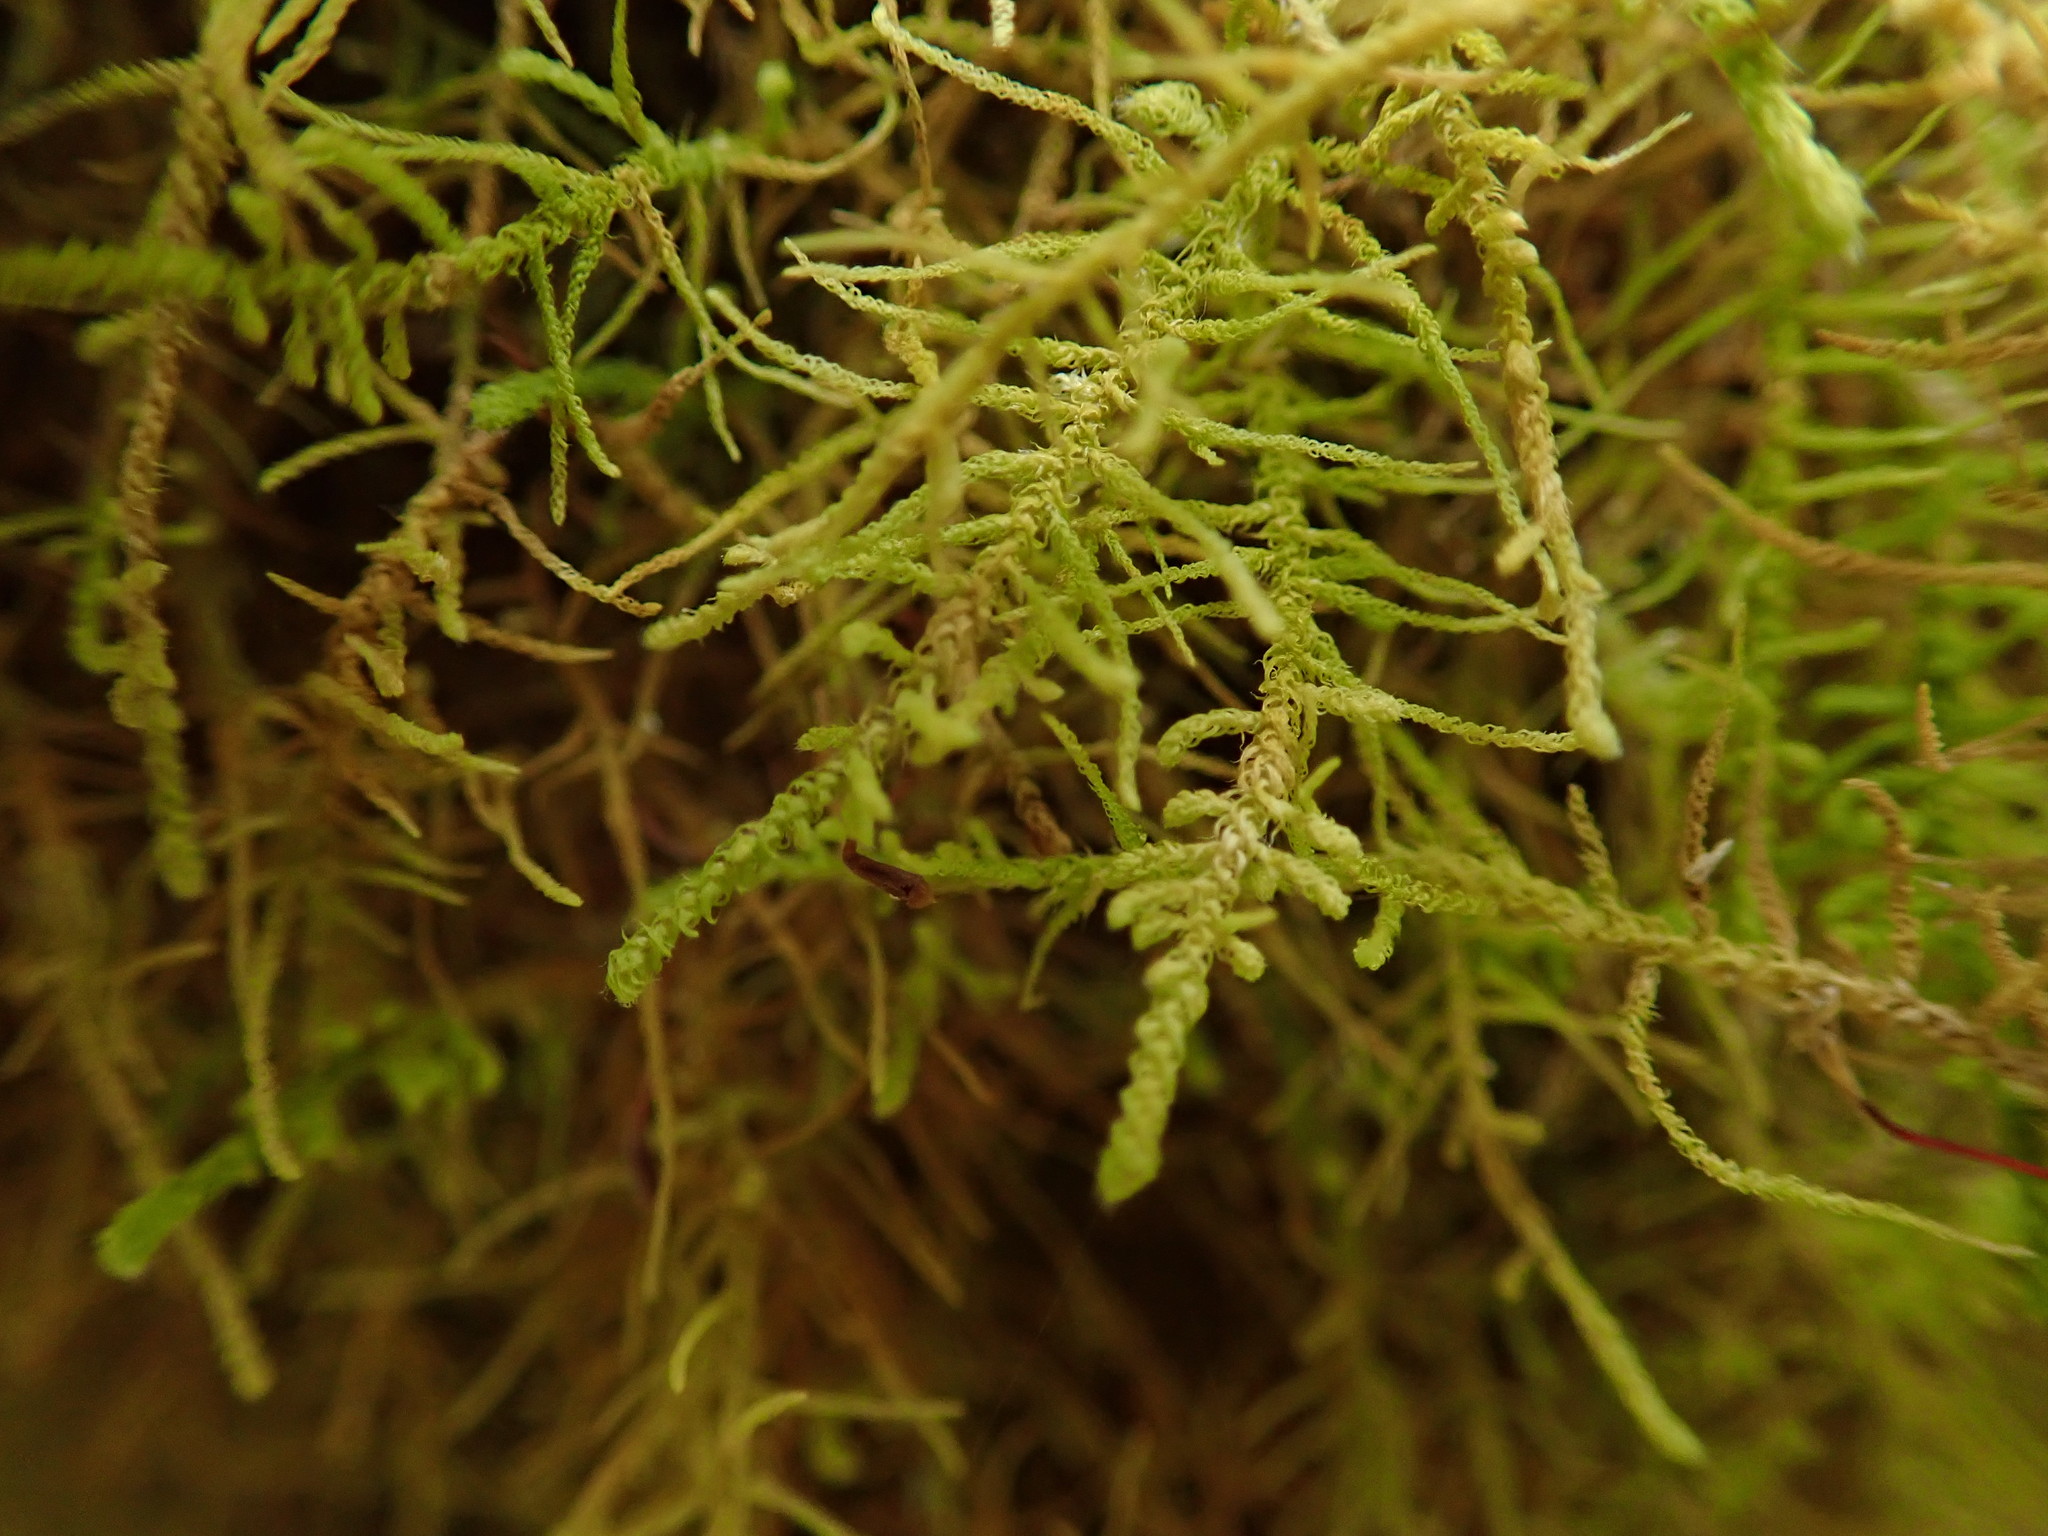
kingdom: Plantae
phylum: Bryophyta
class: Bryopsida
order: Hypnales
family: Brachytheciaceae
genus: Claopodium
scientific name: Claopodium crispifolium
